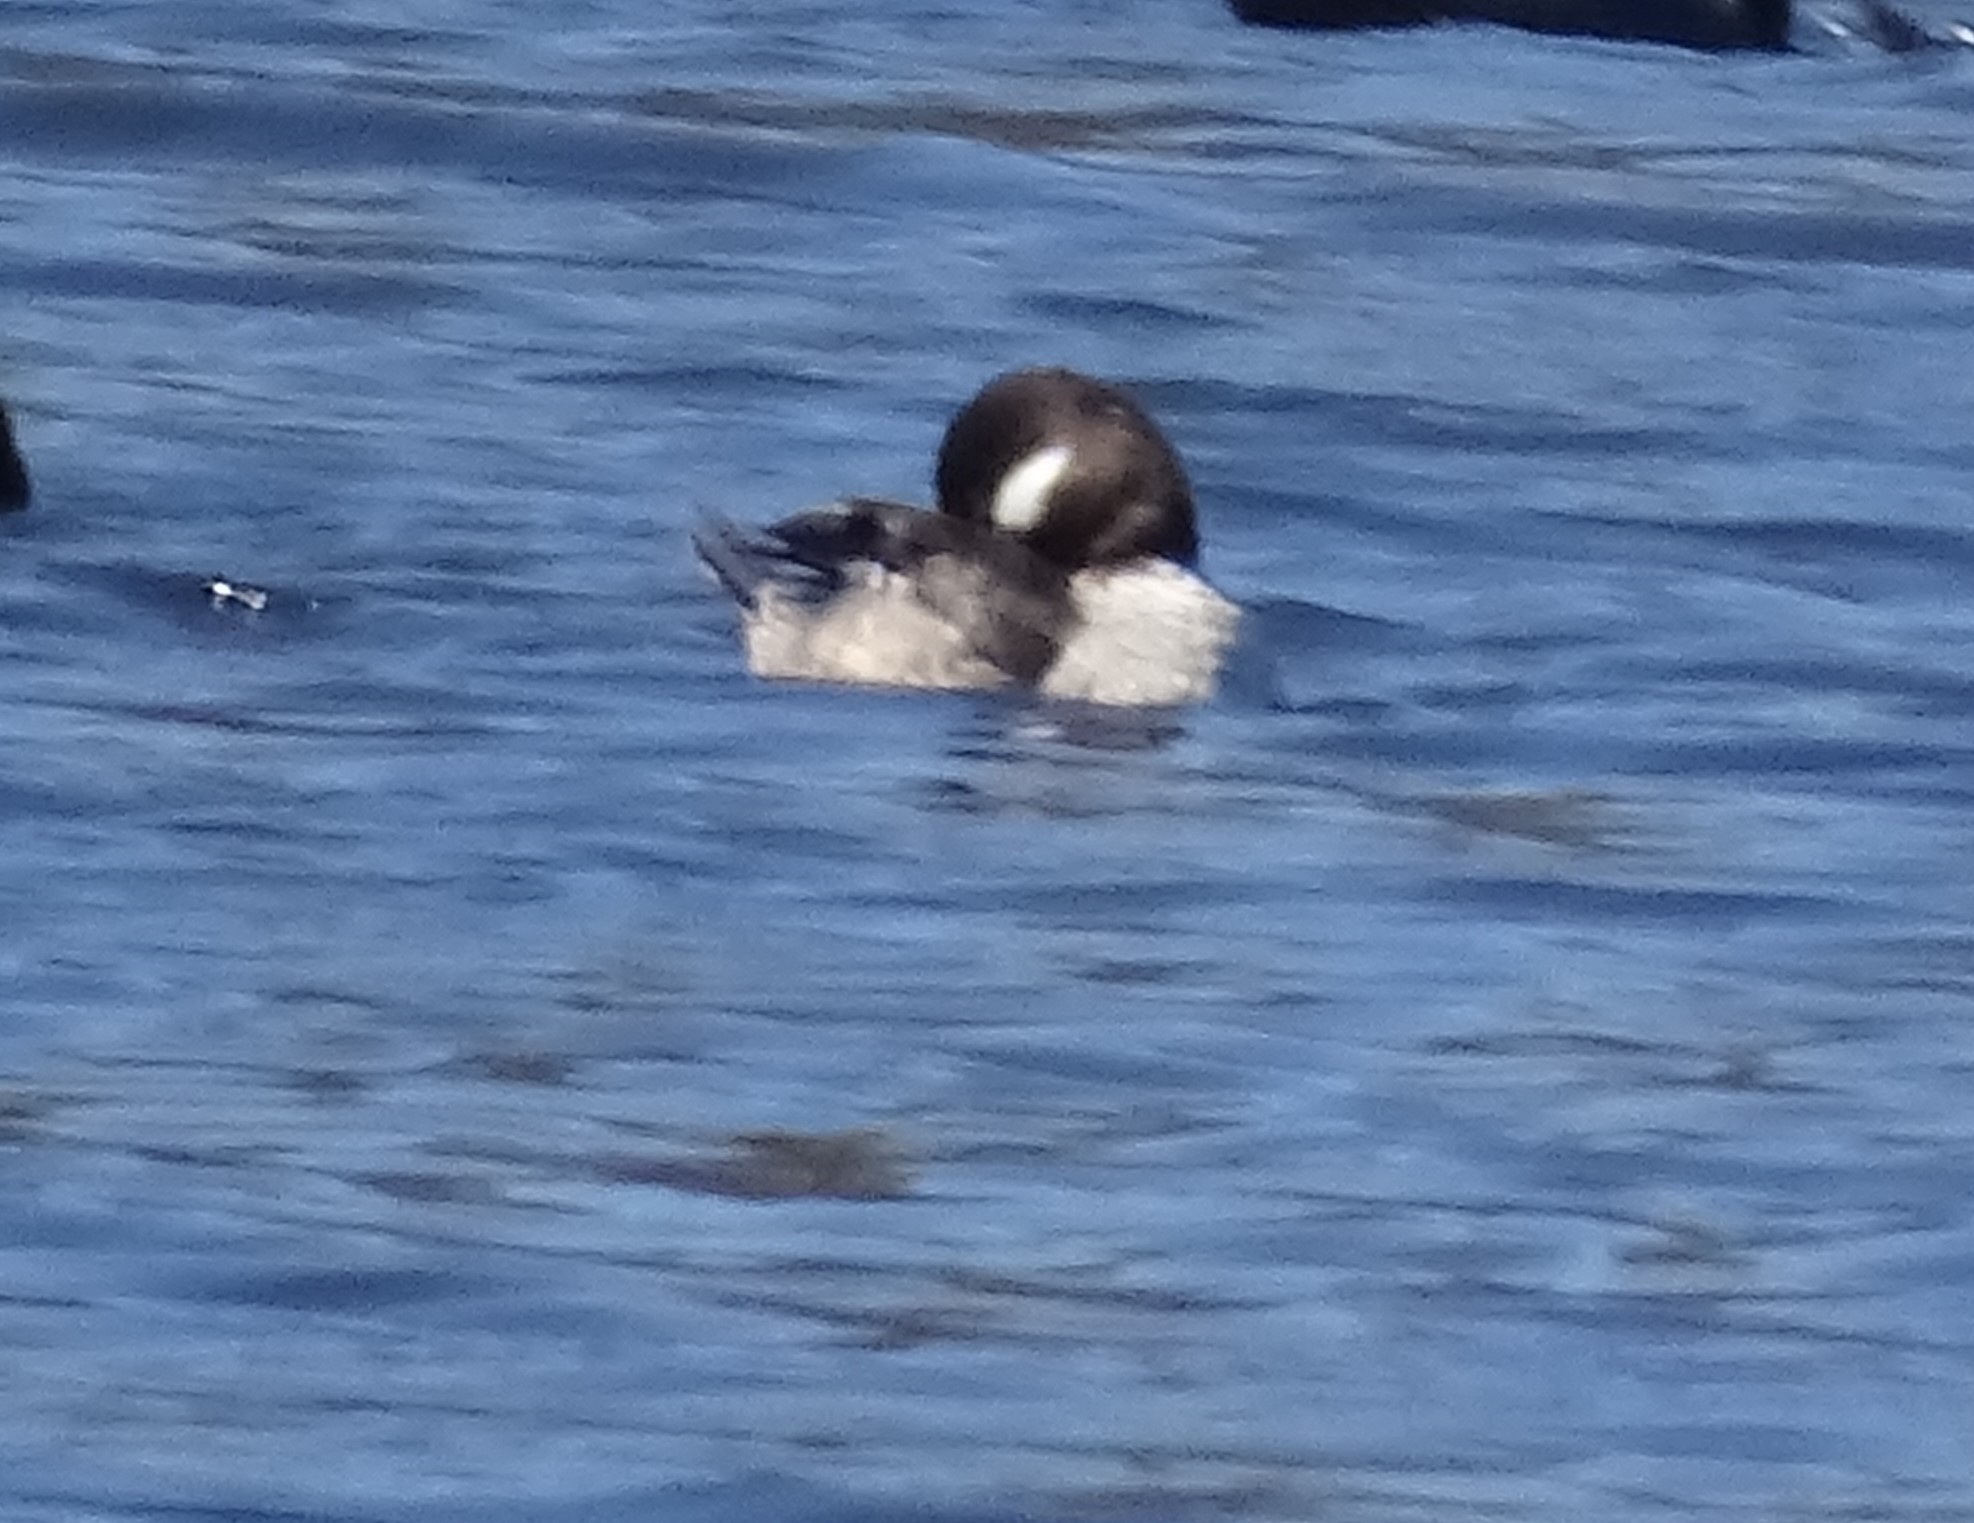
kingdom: Animalia
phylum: Chordata
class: Aves
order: Anseriformes
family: Anatidae
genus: Bucephala
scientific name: Bucephala albeola
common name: Bufflehead
